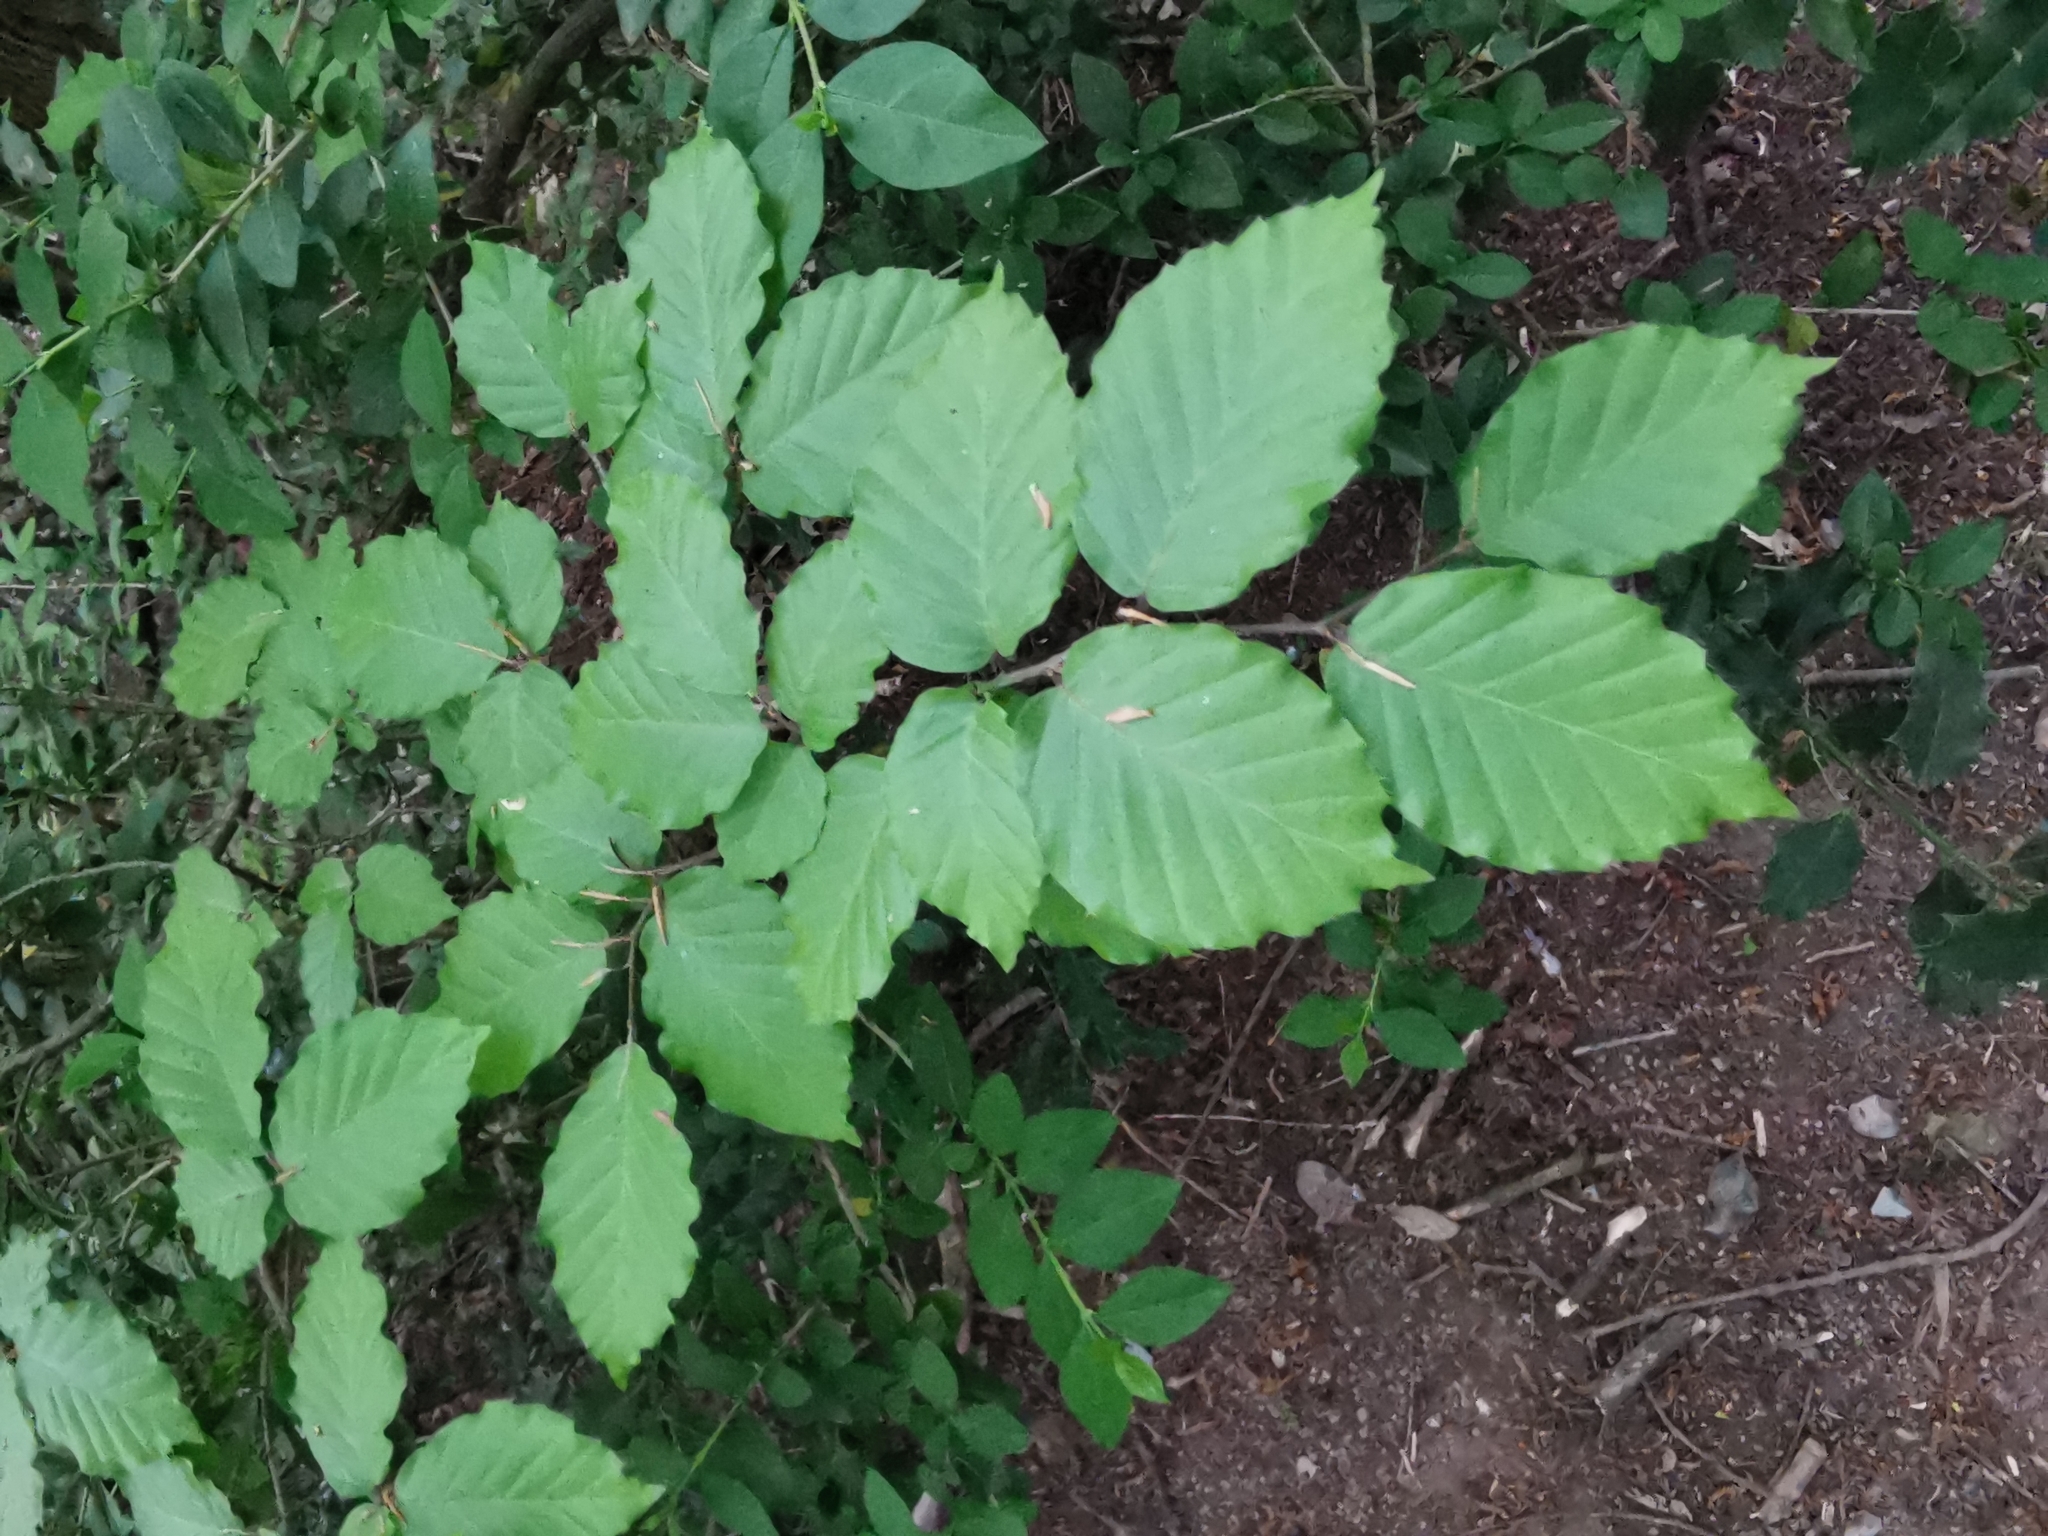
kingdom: Plantae
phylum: Tracheophyta
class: Magnoliopsida
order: Fagales
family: Fagaceae
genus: Fagus
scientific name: Fagus sylvatica
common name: Beech
